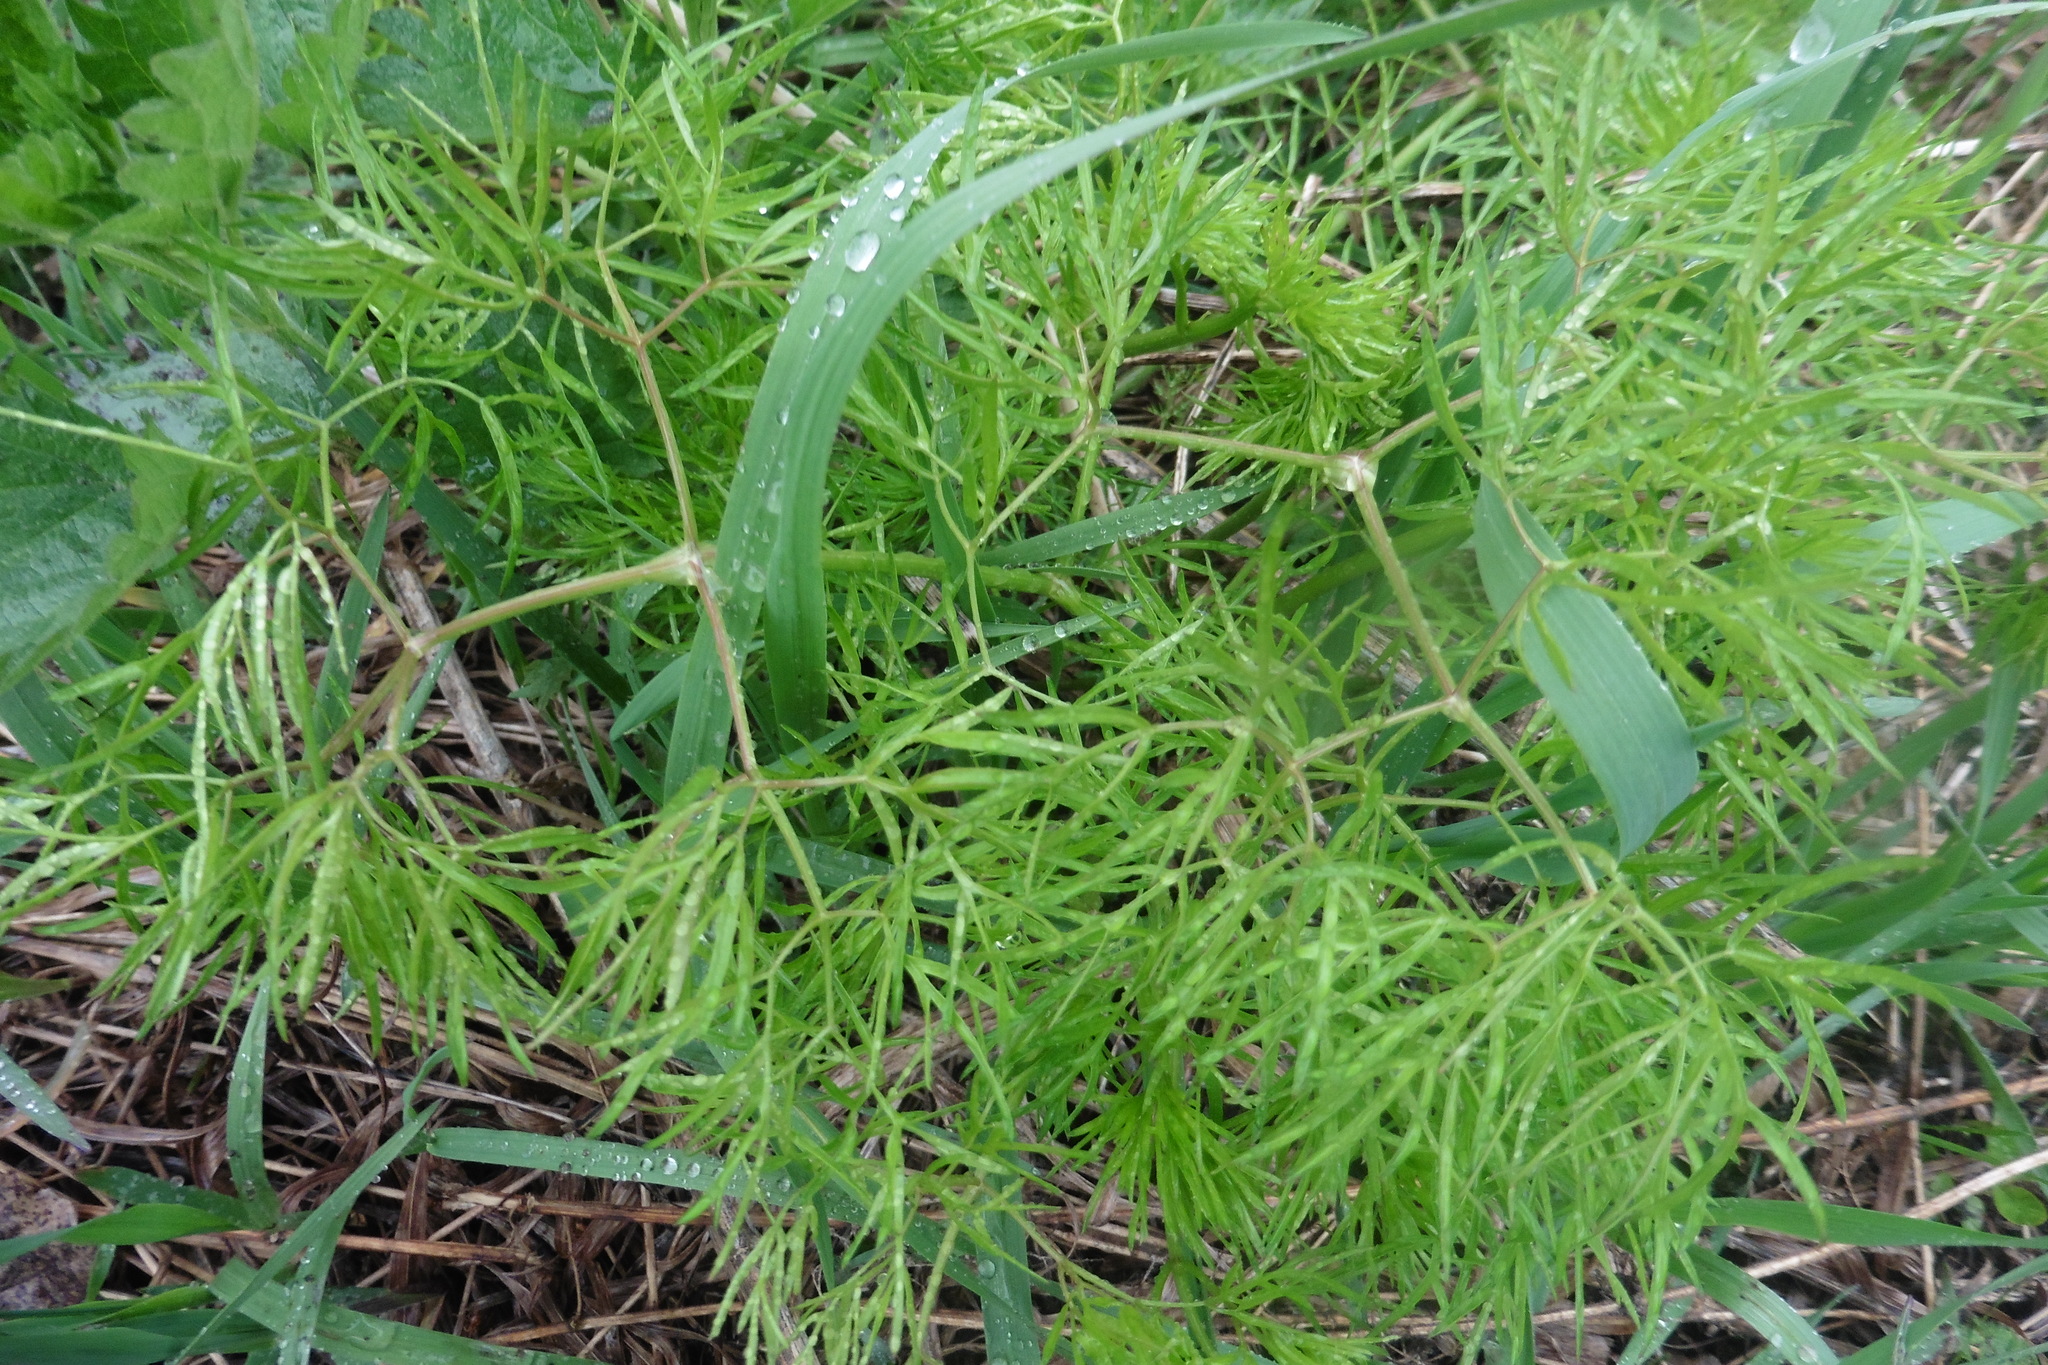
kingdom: Plantae
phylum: Tracheophyta
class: Magnoliopsida
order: Apiales
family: Apiaceae
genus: Cenolophium
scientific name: Cenolophium fischeri
